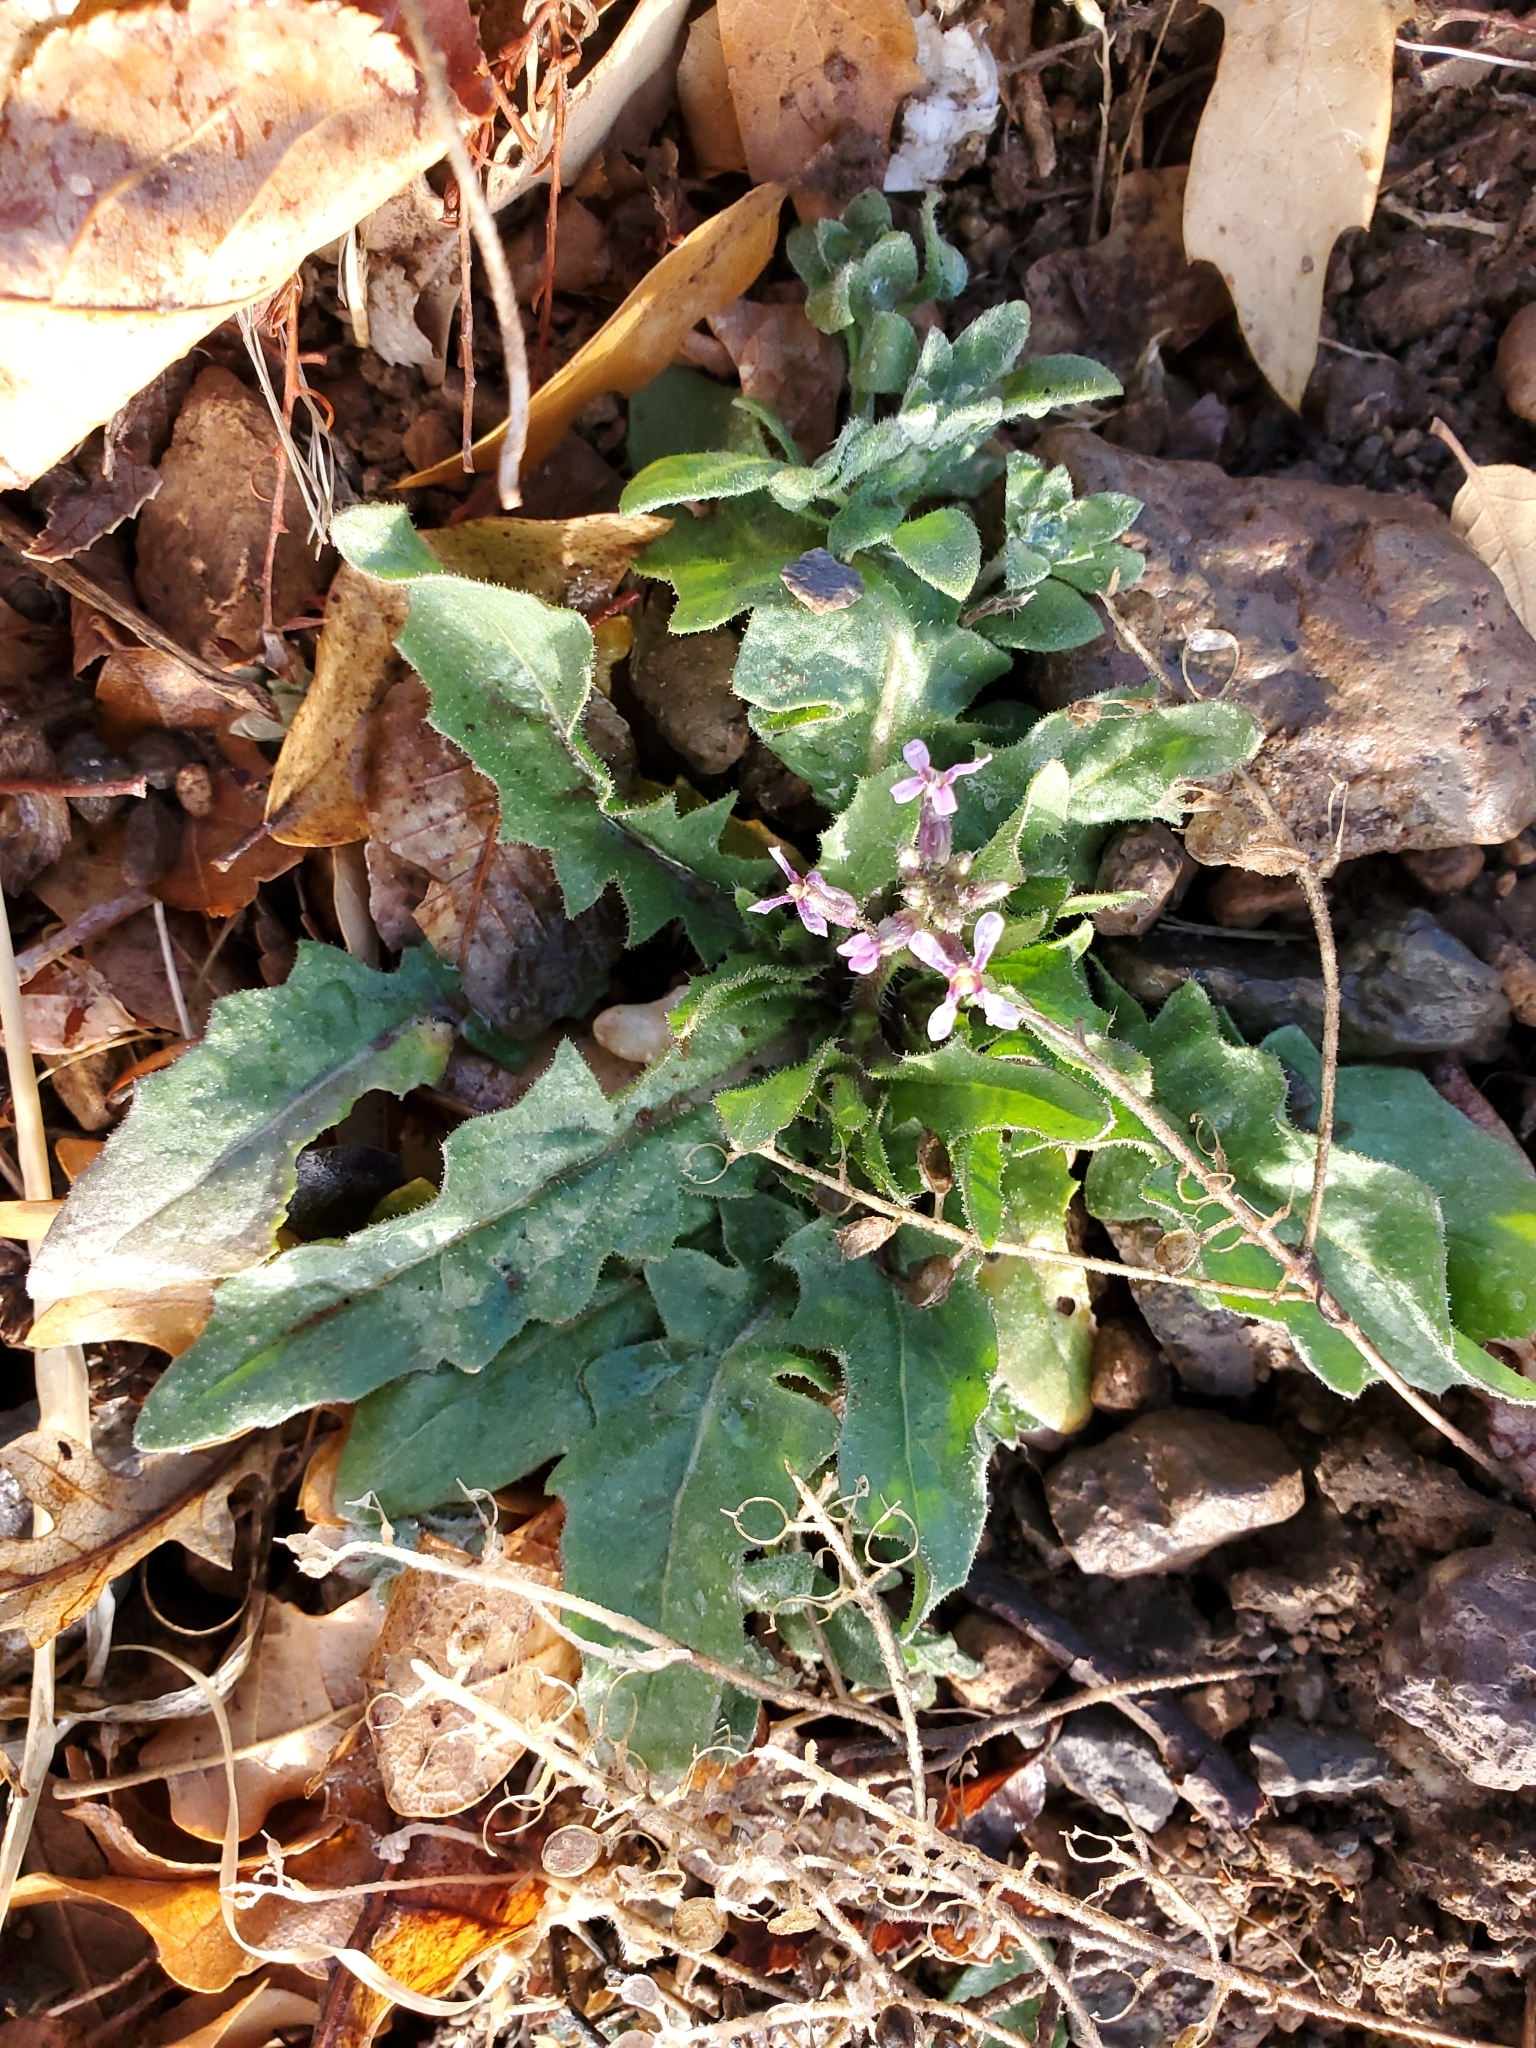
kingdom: Plantae
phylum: Tracheophyta
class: Magnoliopsida
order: Brassicales
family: Brassicaceae
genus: Chorispora
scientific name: Chorispora tenella
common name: Crossflower
